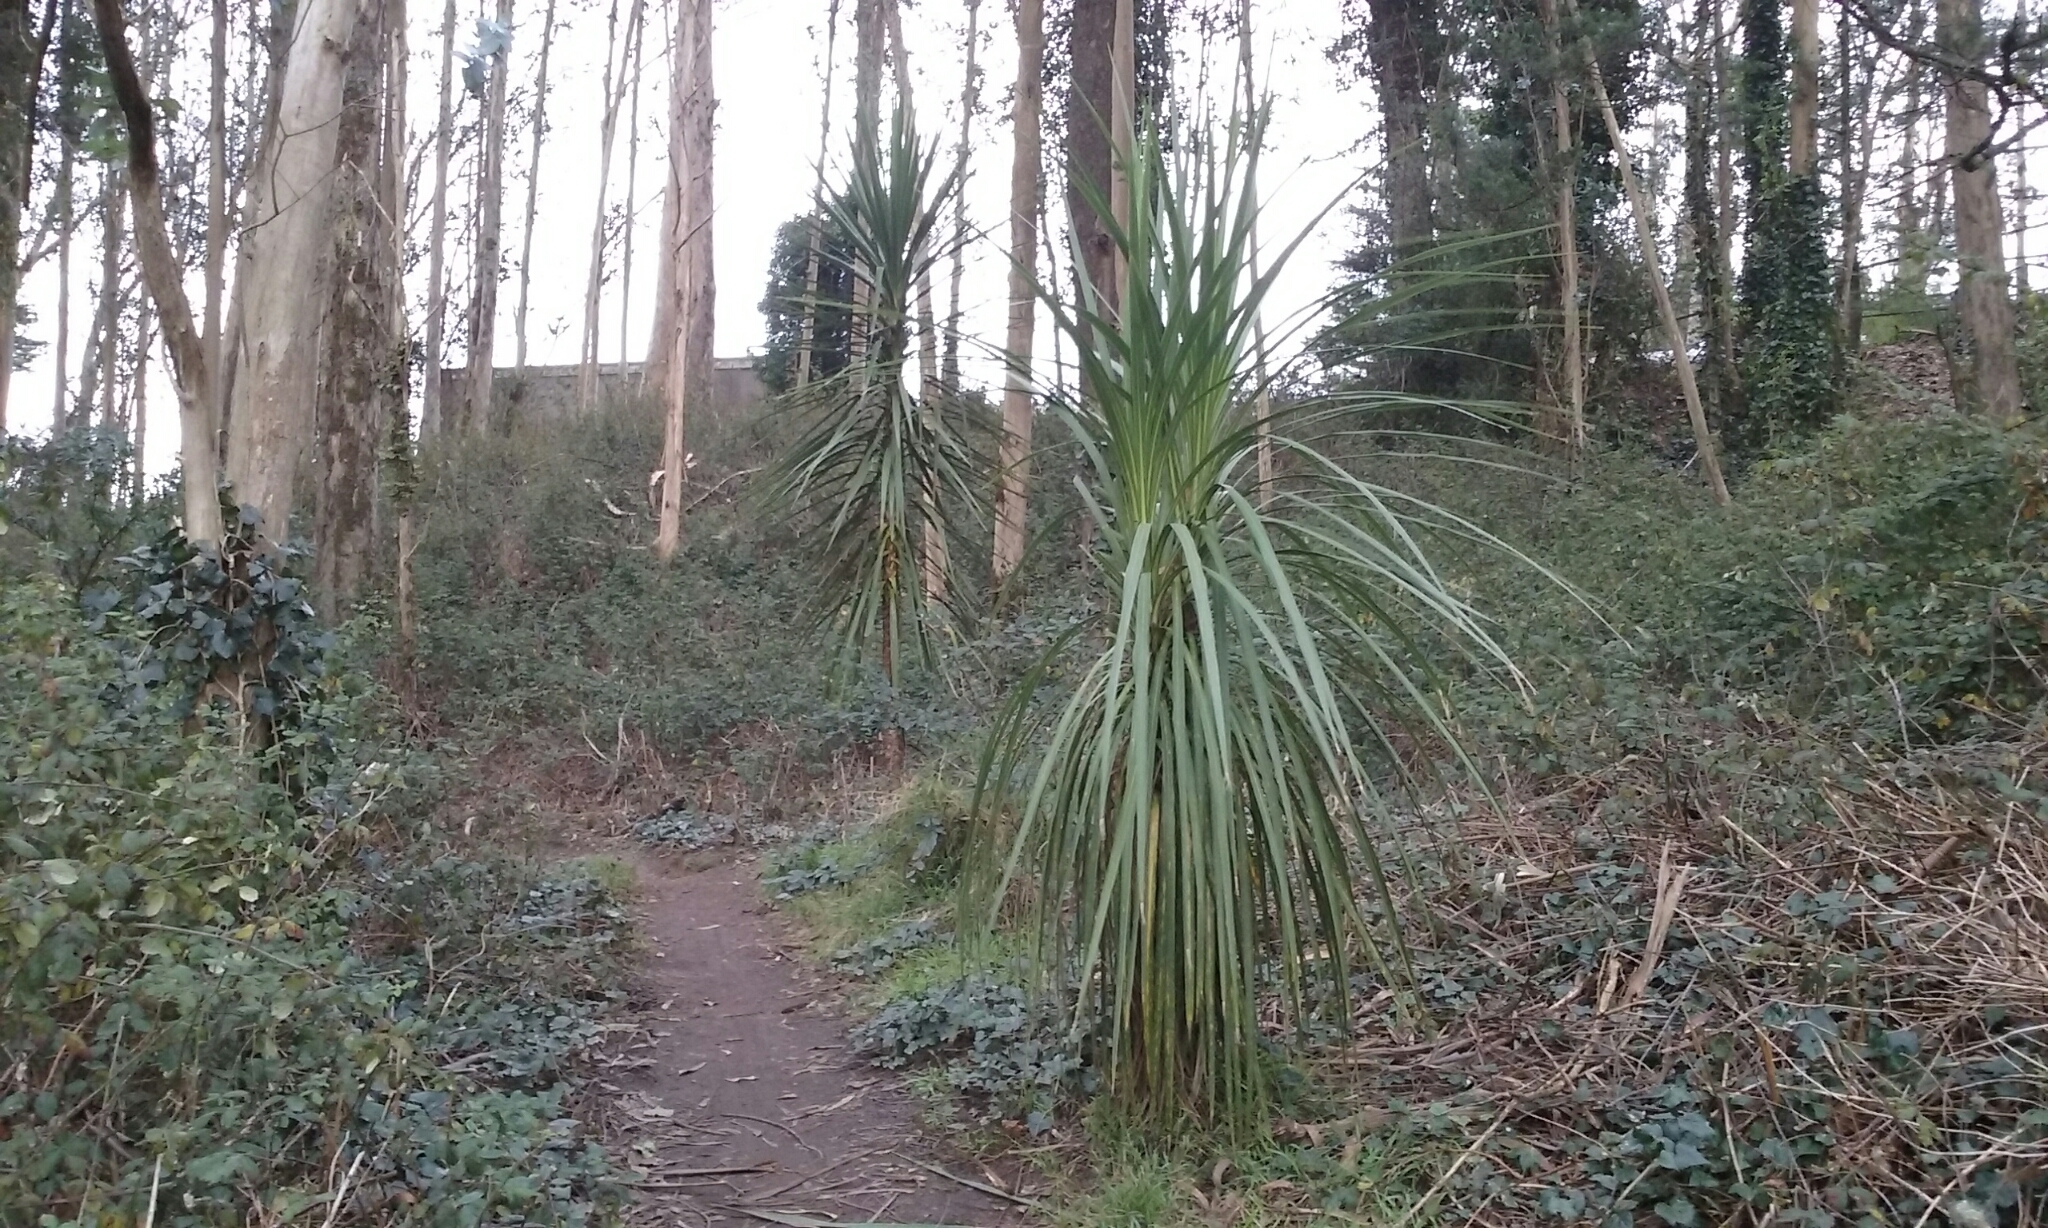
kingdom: Plantae
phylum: Tracheophyta
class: Liliopsida
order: Asparagales
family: Asparagaceae
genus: Cordyline
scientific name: Cordyline australis
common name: Cabbage-palm
